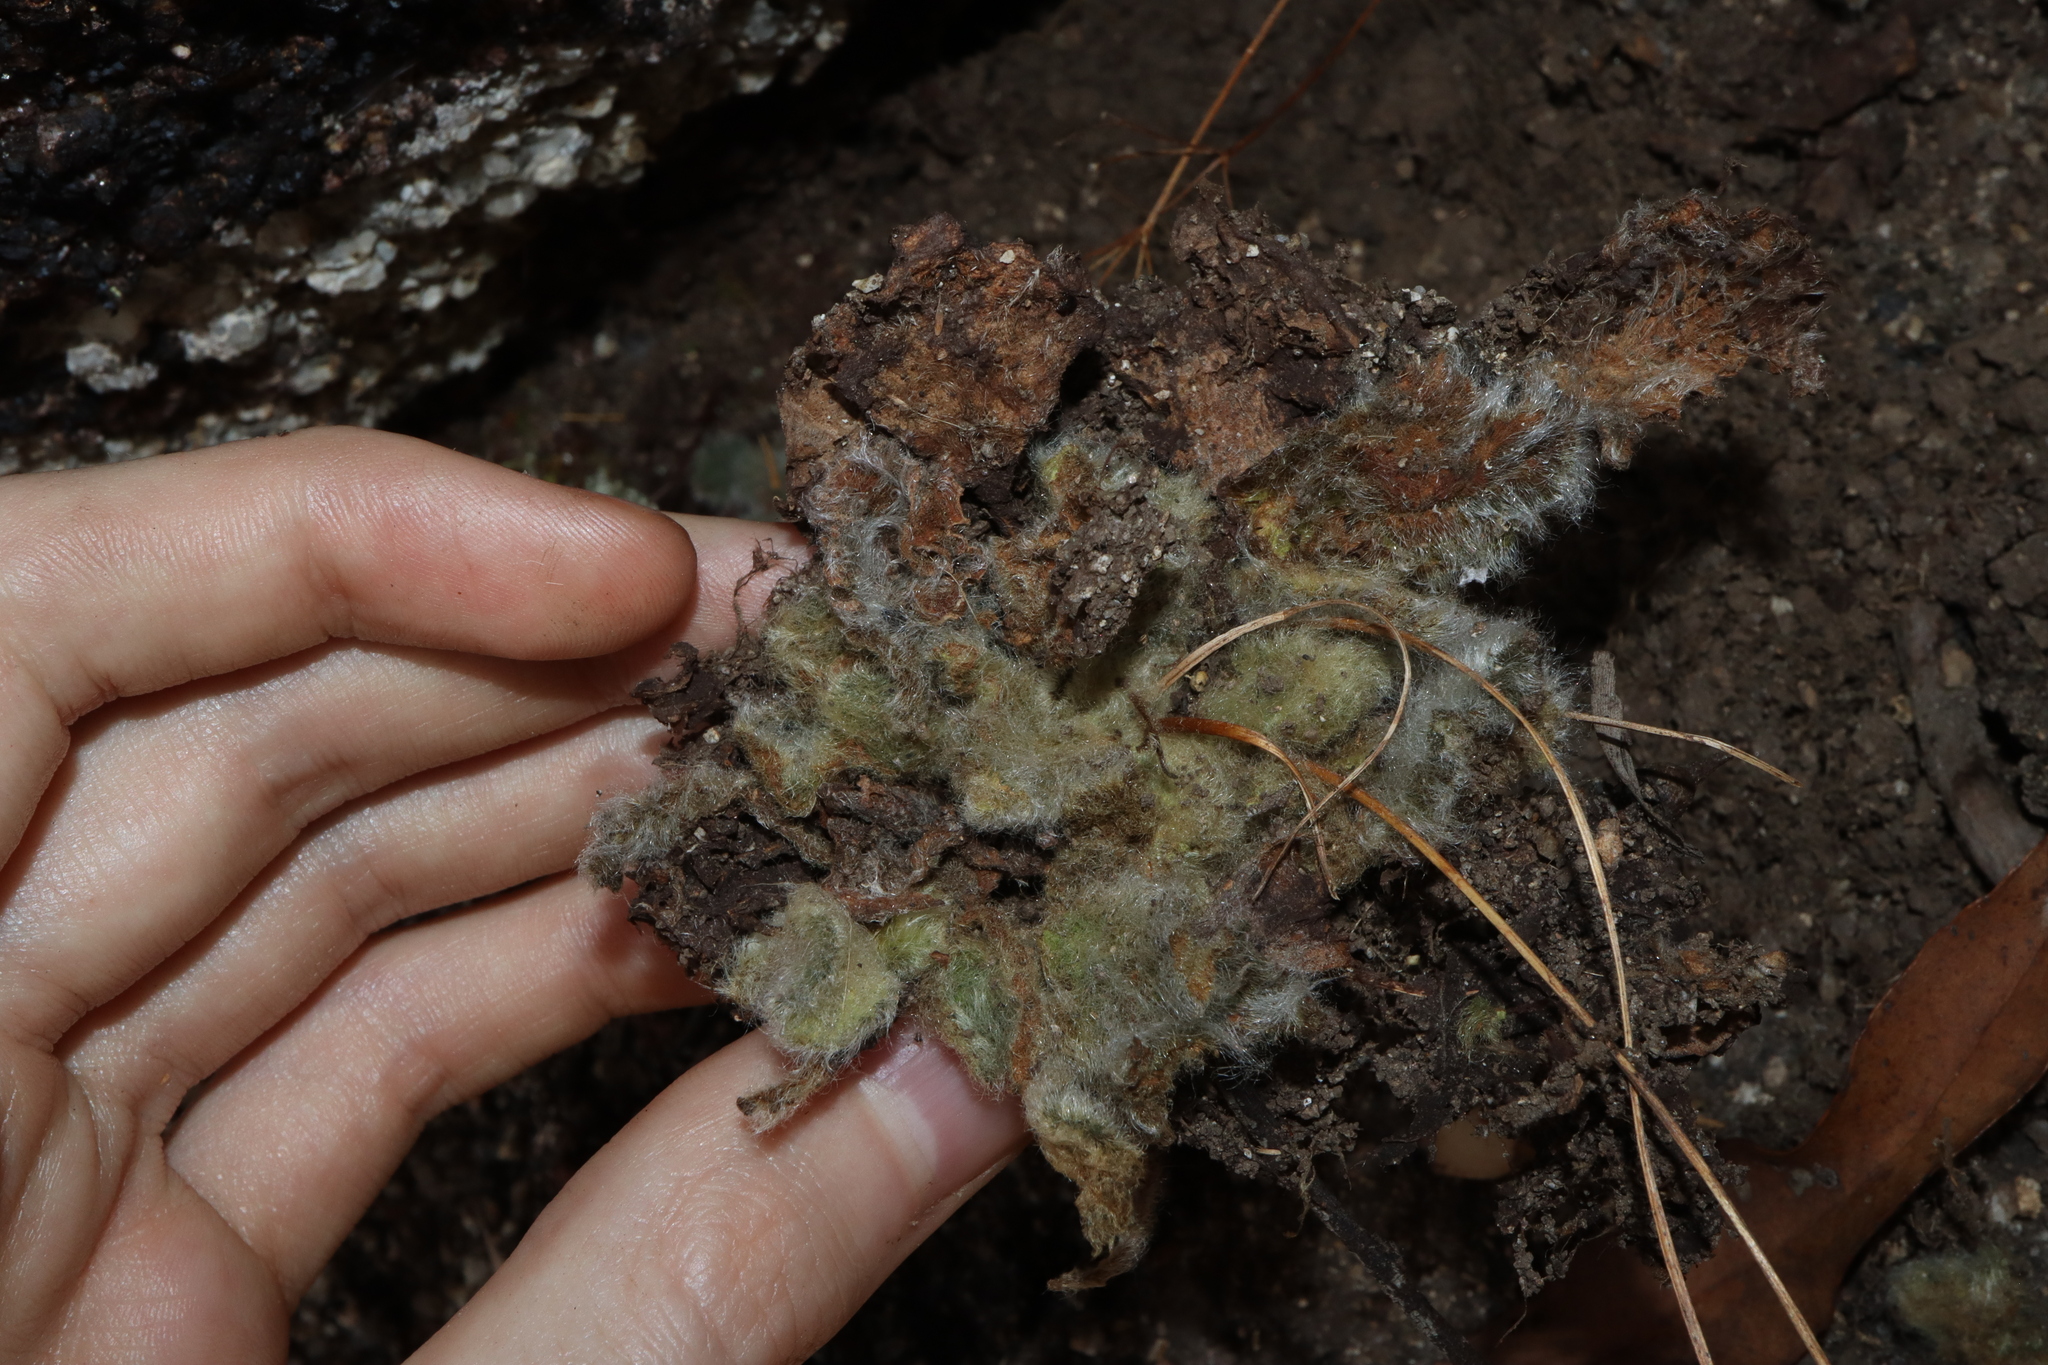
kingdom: Plantae
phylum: Tracheophyta
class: Magnoliopsida
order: Lamiales
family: Gesneriaceae
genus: Boea
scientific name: Boea hygroscopica
